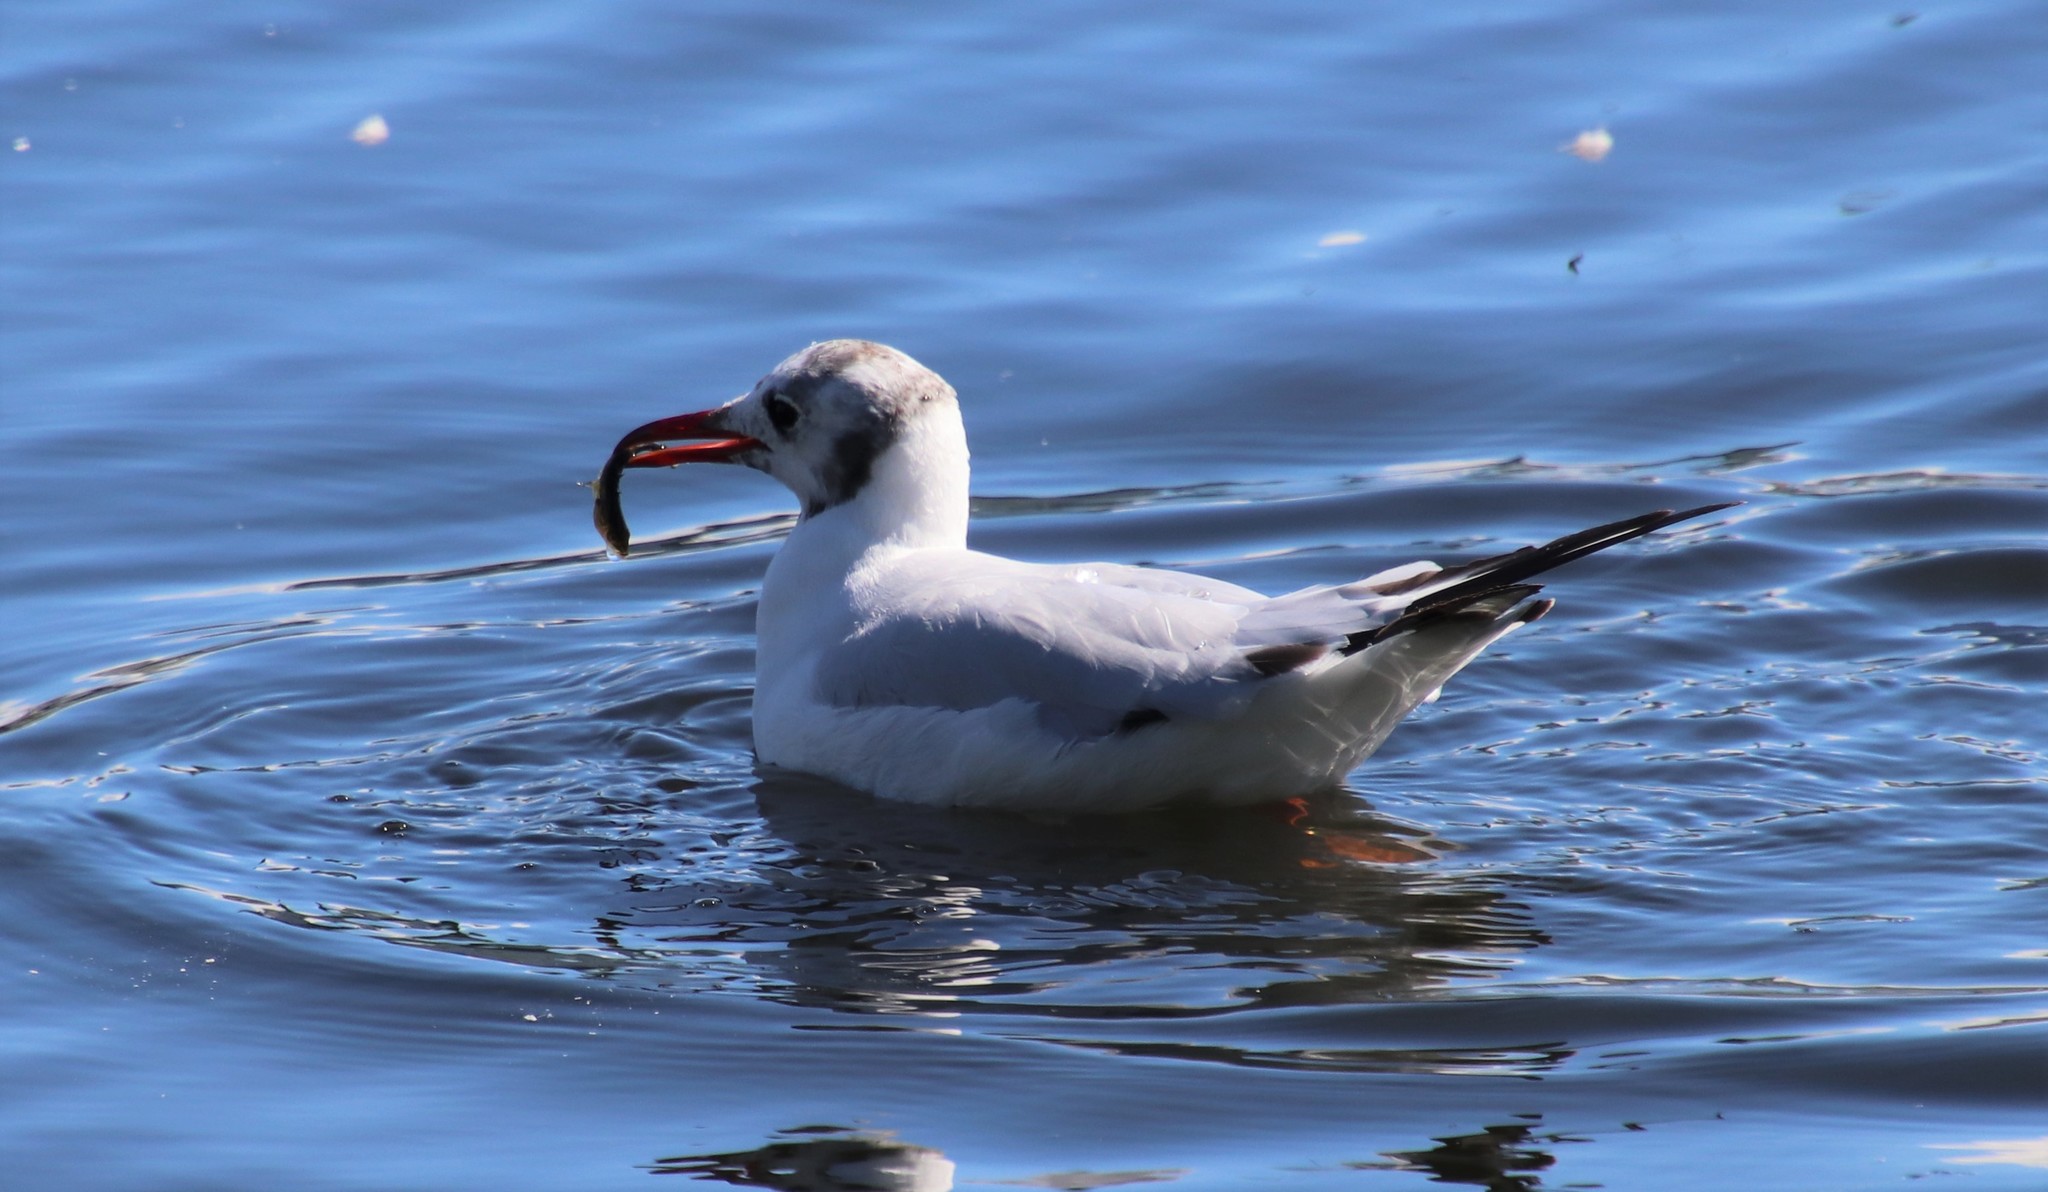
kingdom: Animalia
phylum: Chordata
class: Aves
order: Charadriiformes
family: Laridae
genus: Chroicocephalus
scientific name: Chroicocephalus ridibundus
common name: Black-headed gull
